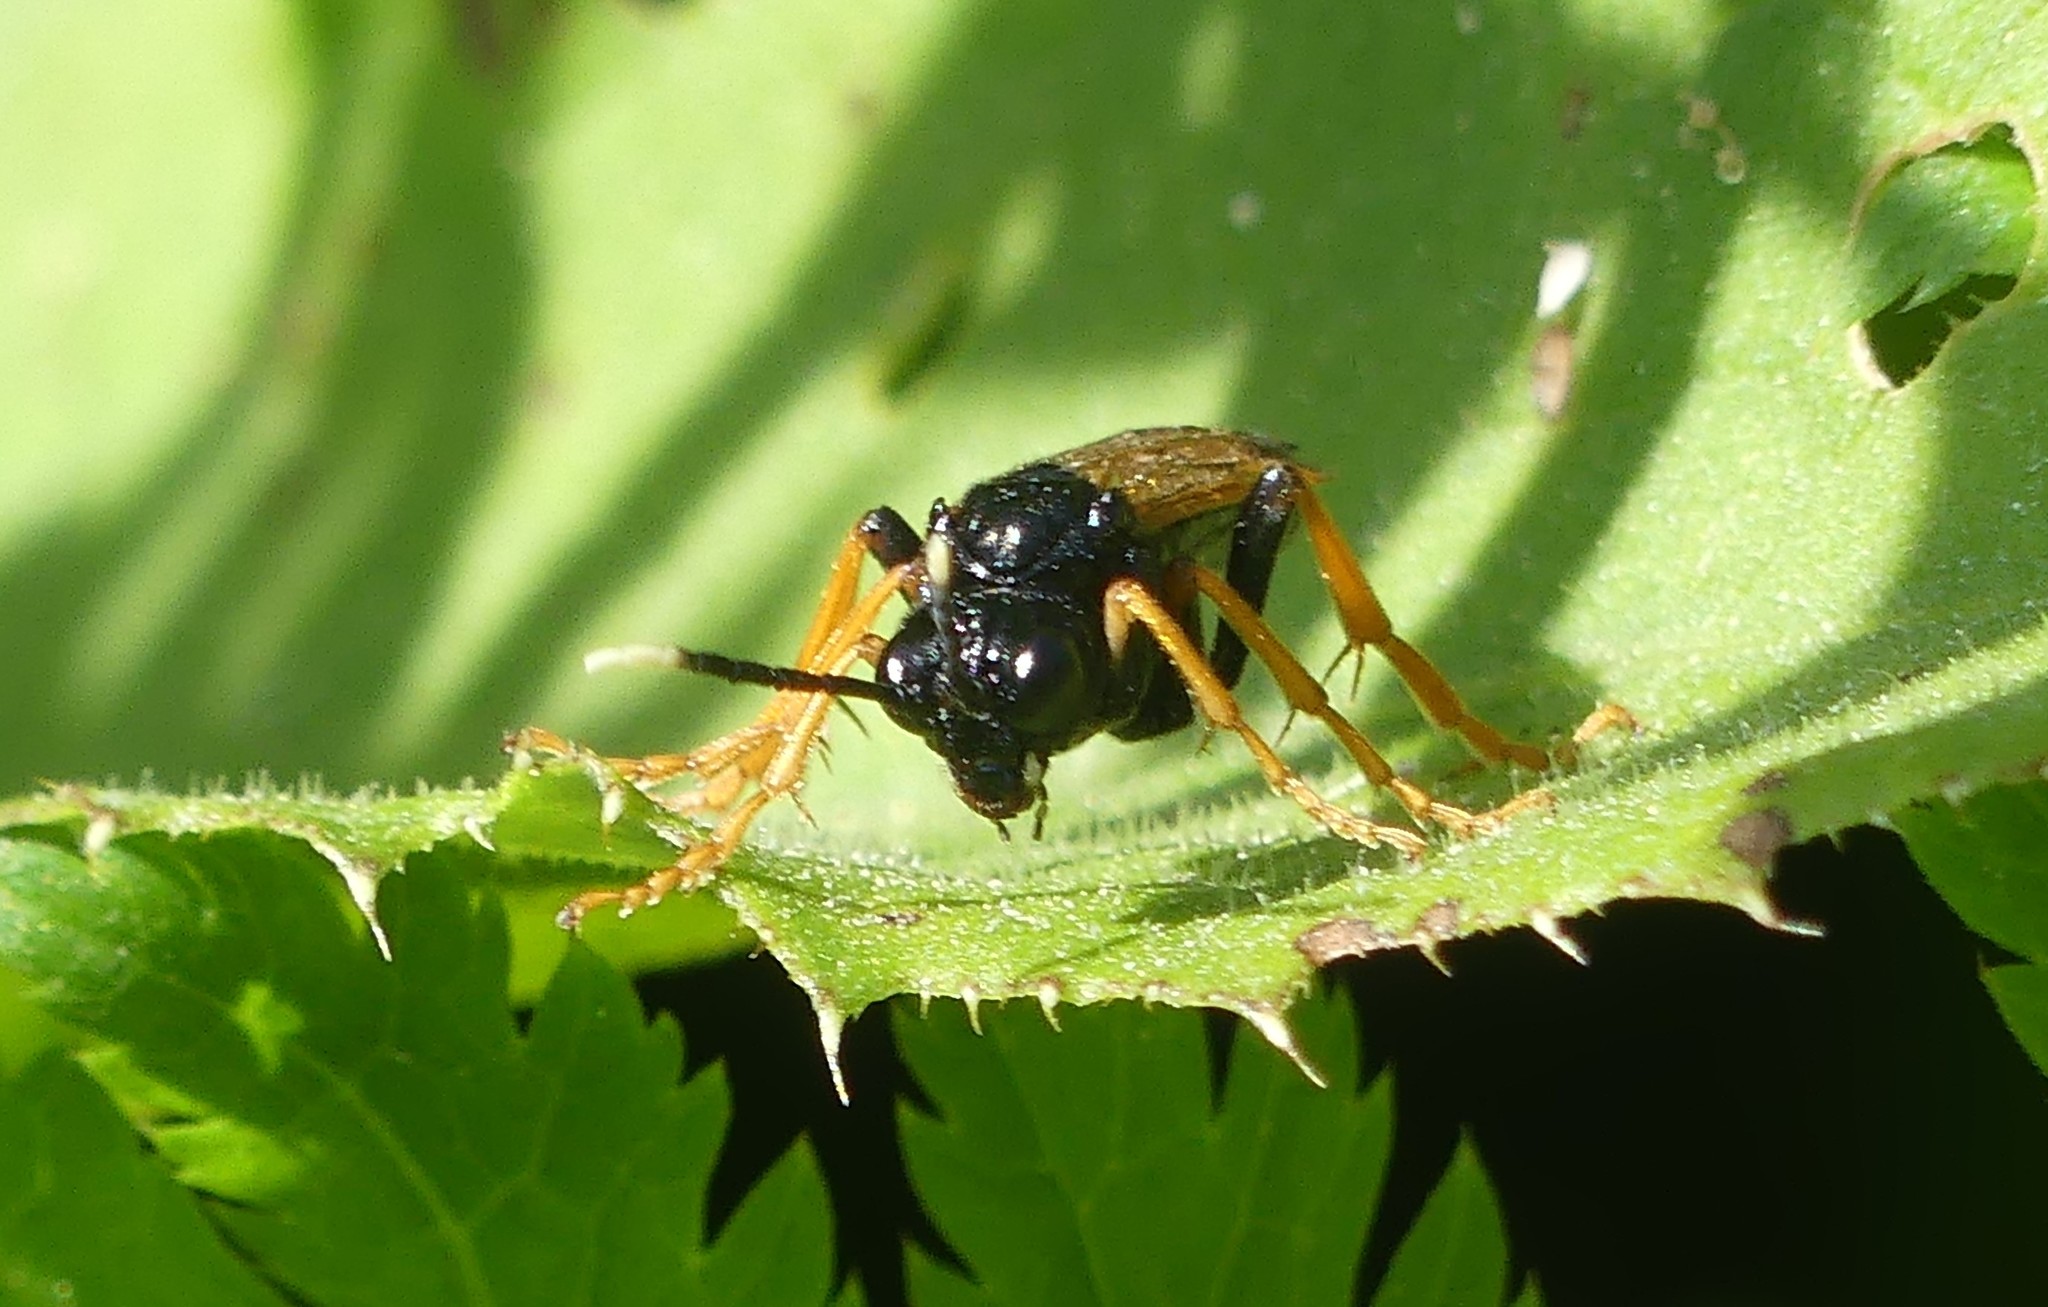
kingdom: Animalia
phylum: Arthropoda
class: Insecta
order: Hymenoptera
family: Tenthredinidae
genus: Tenthredo
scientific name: Tenthredo crassa
